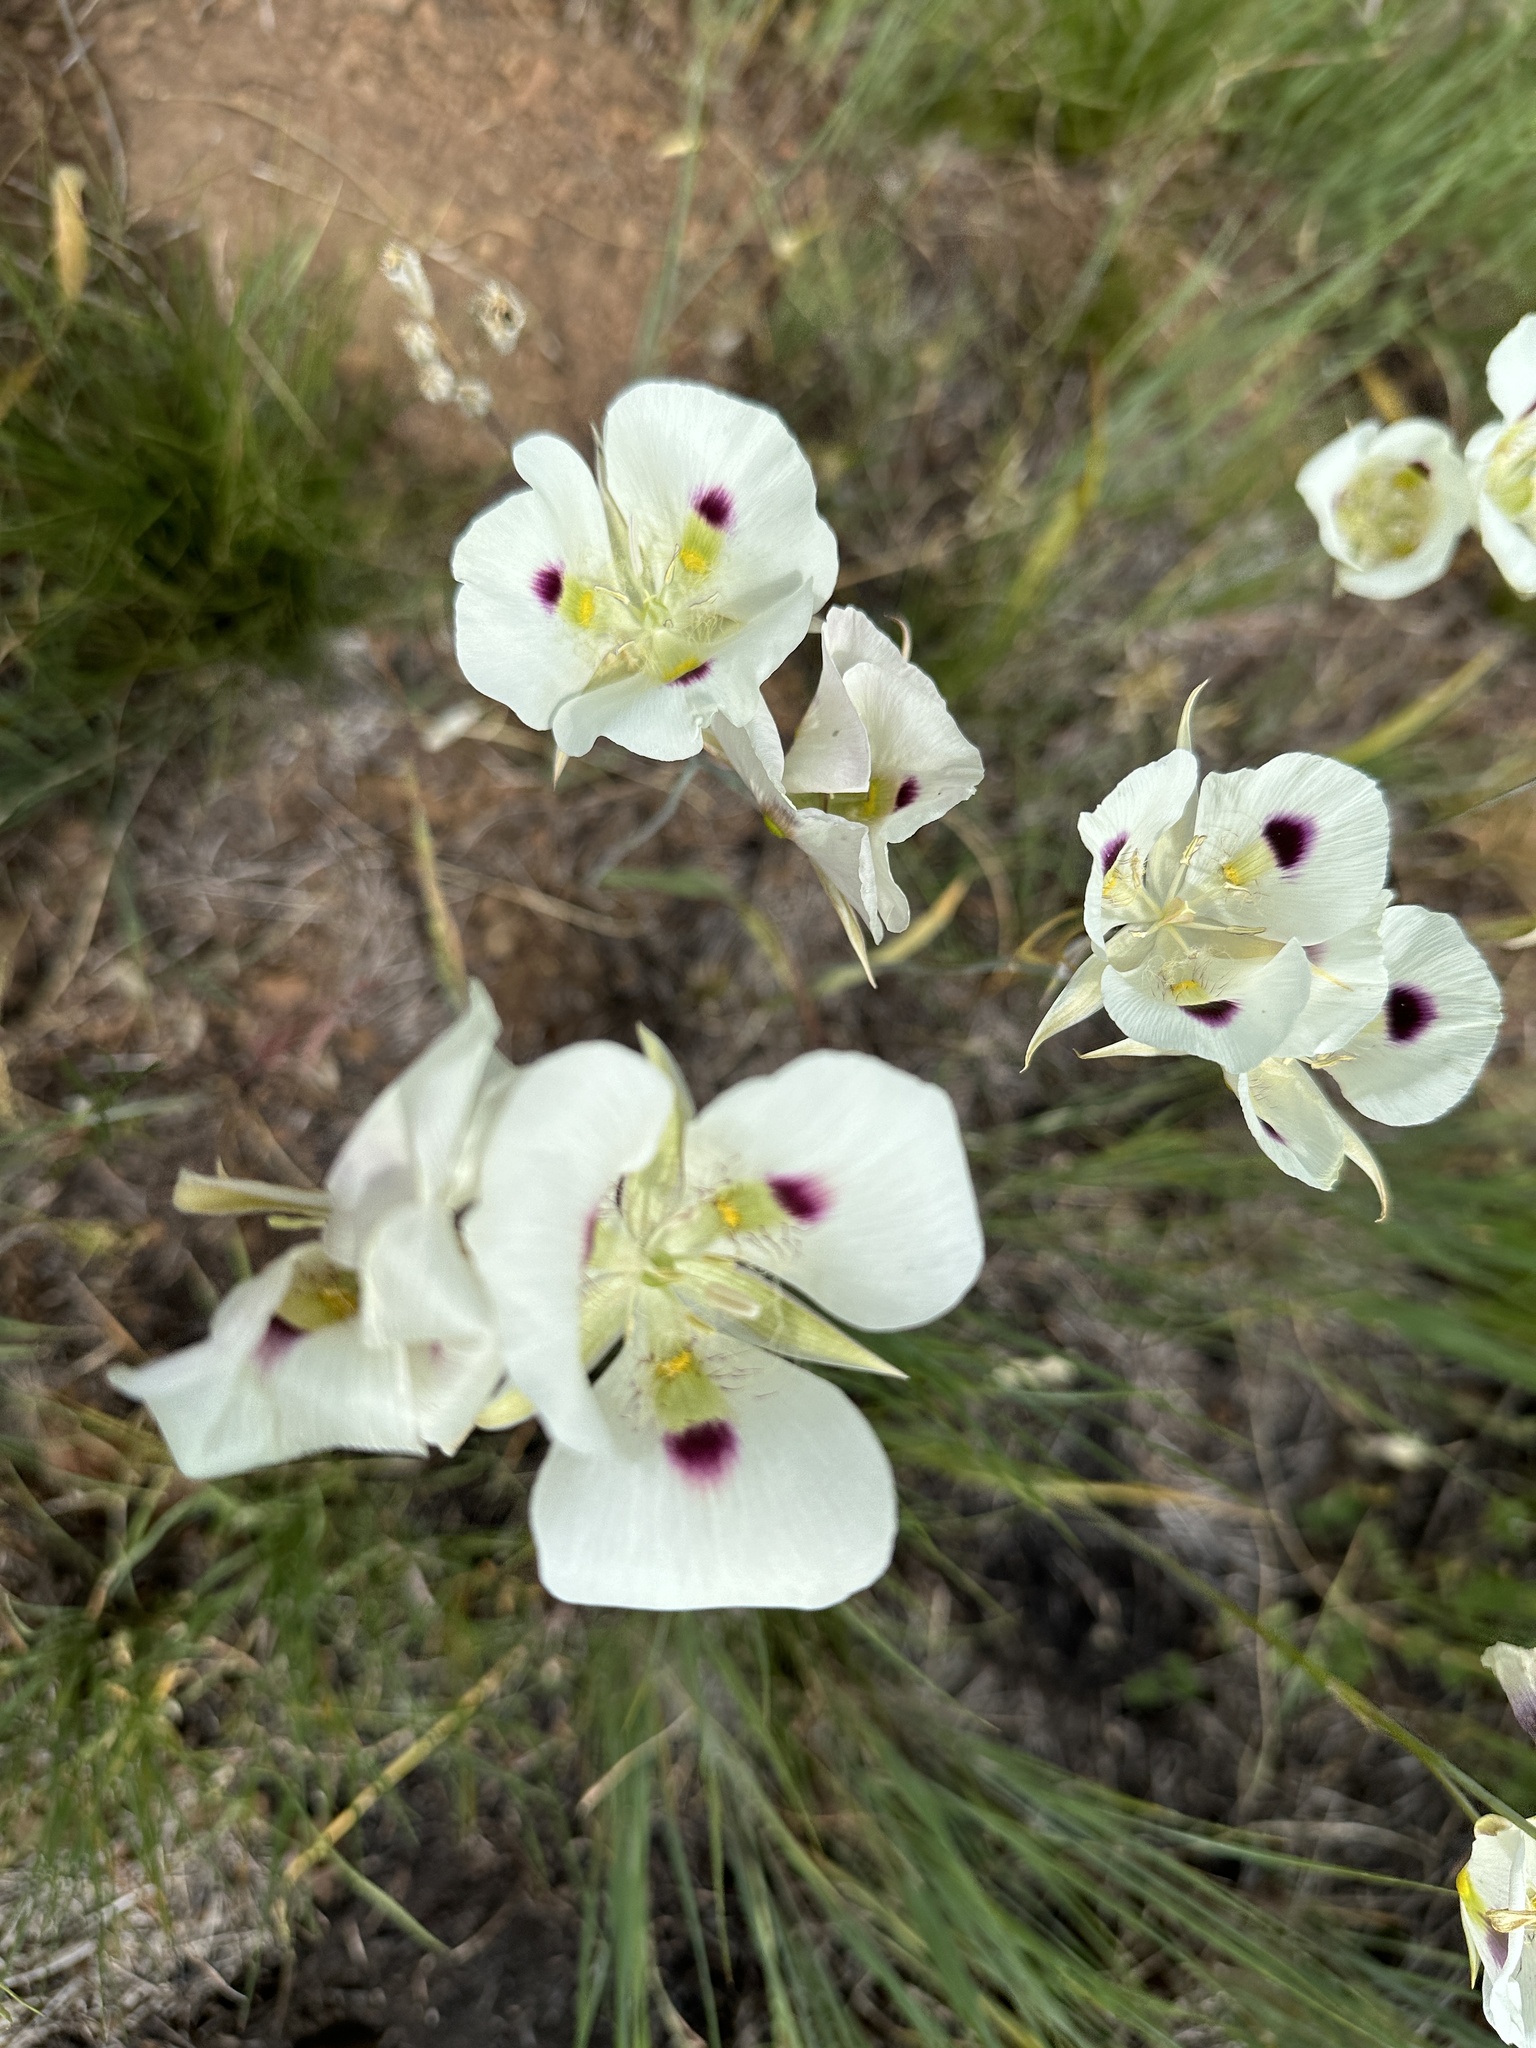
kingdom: Plantae
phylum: Tracheophyta
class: Liliopsida
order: Liliales
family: Liliaceae
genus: Calochortus
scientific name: Calochortus eurycarpus
